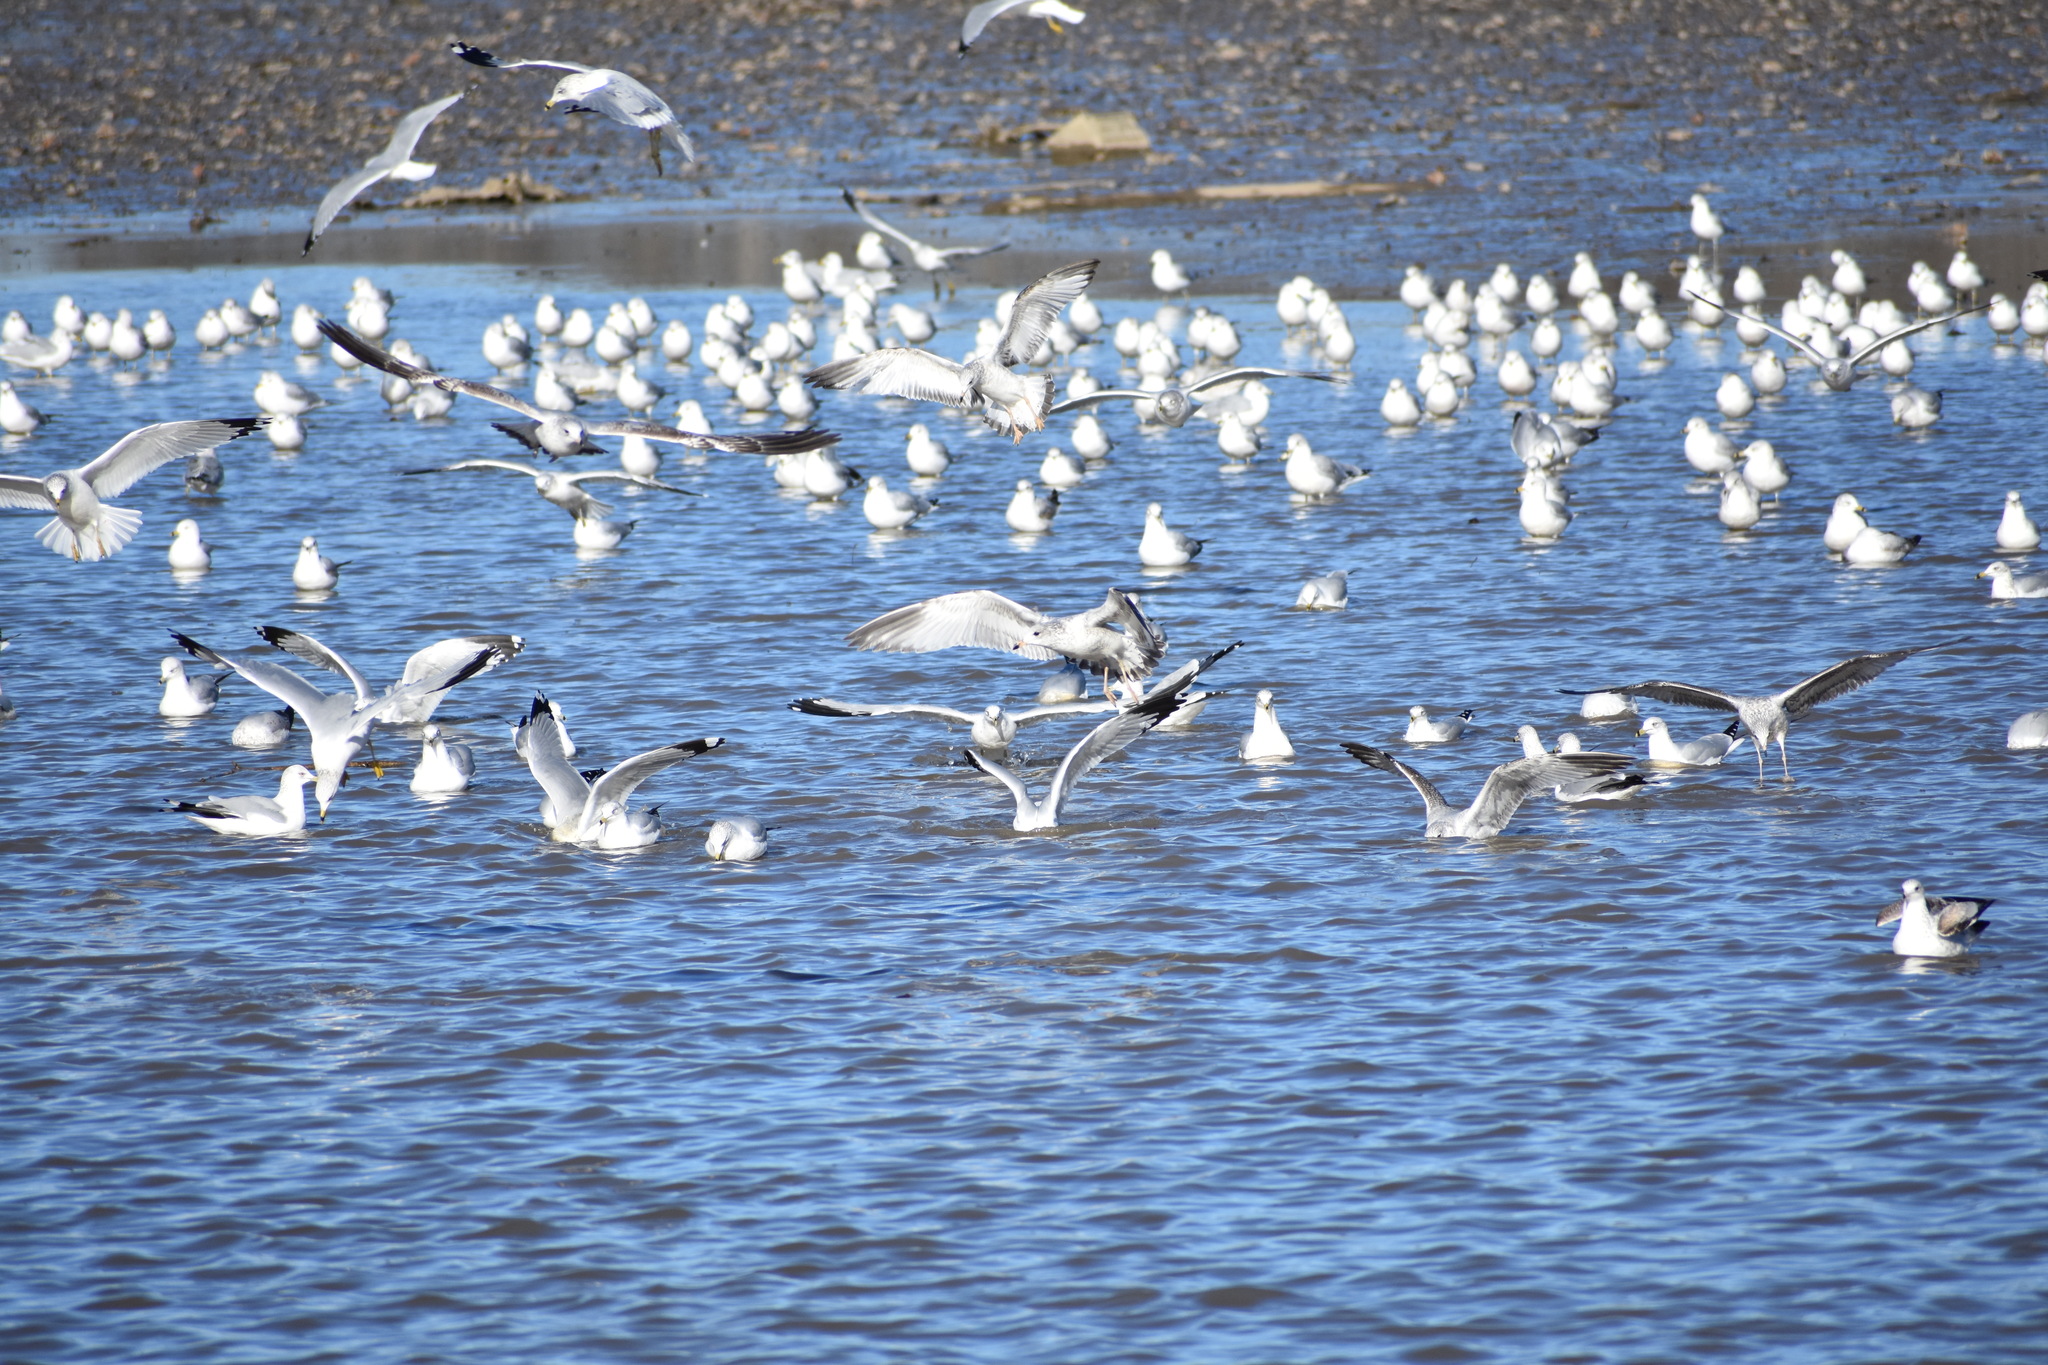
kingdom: Animalia
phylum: Chordata
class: Aves
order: Charadriiformes
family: Laridae
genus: Larus
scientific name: Larus delawarensis
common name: Ring-billed gull
